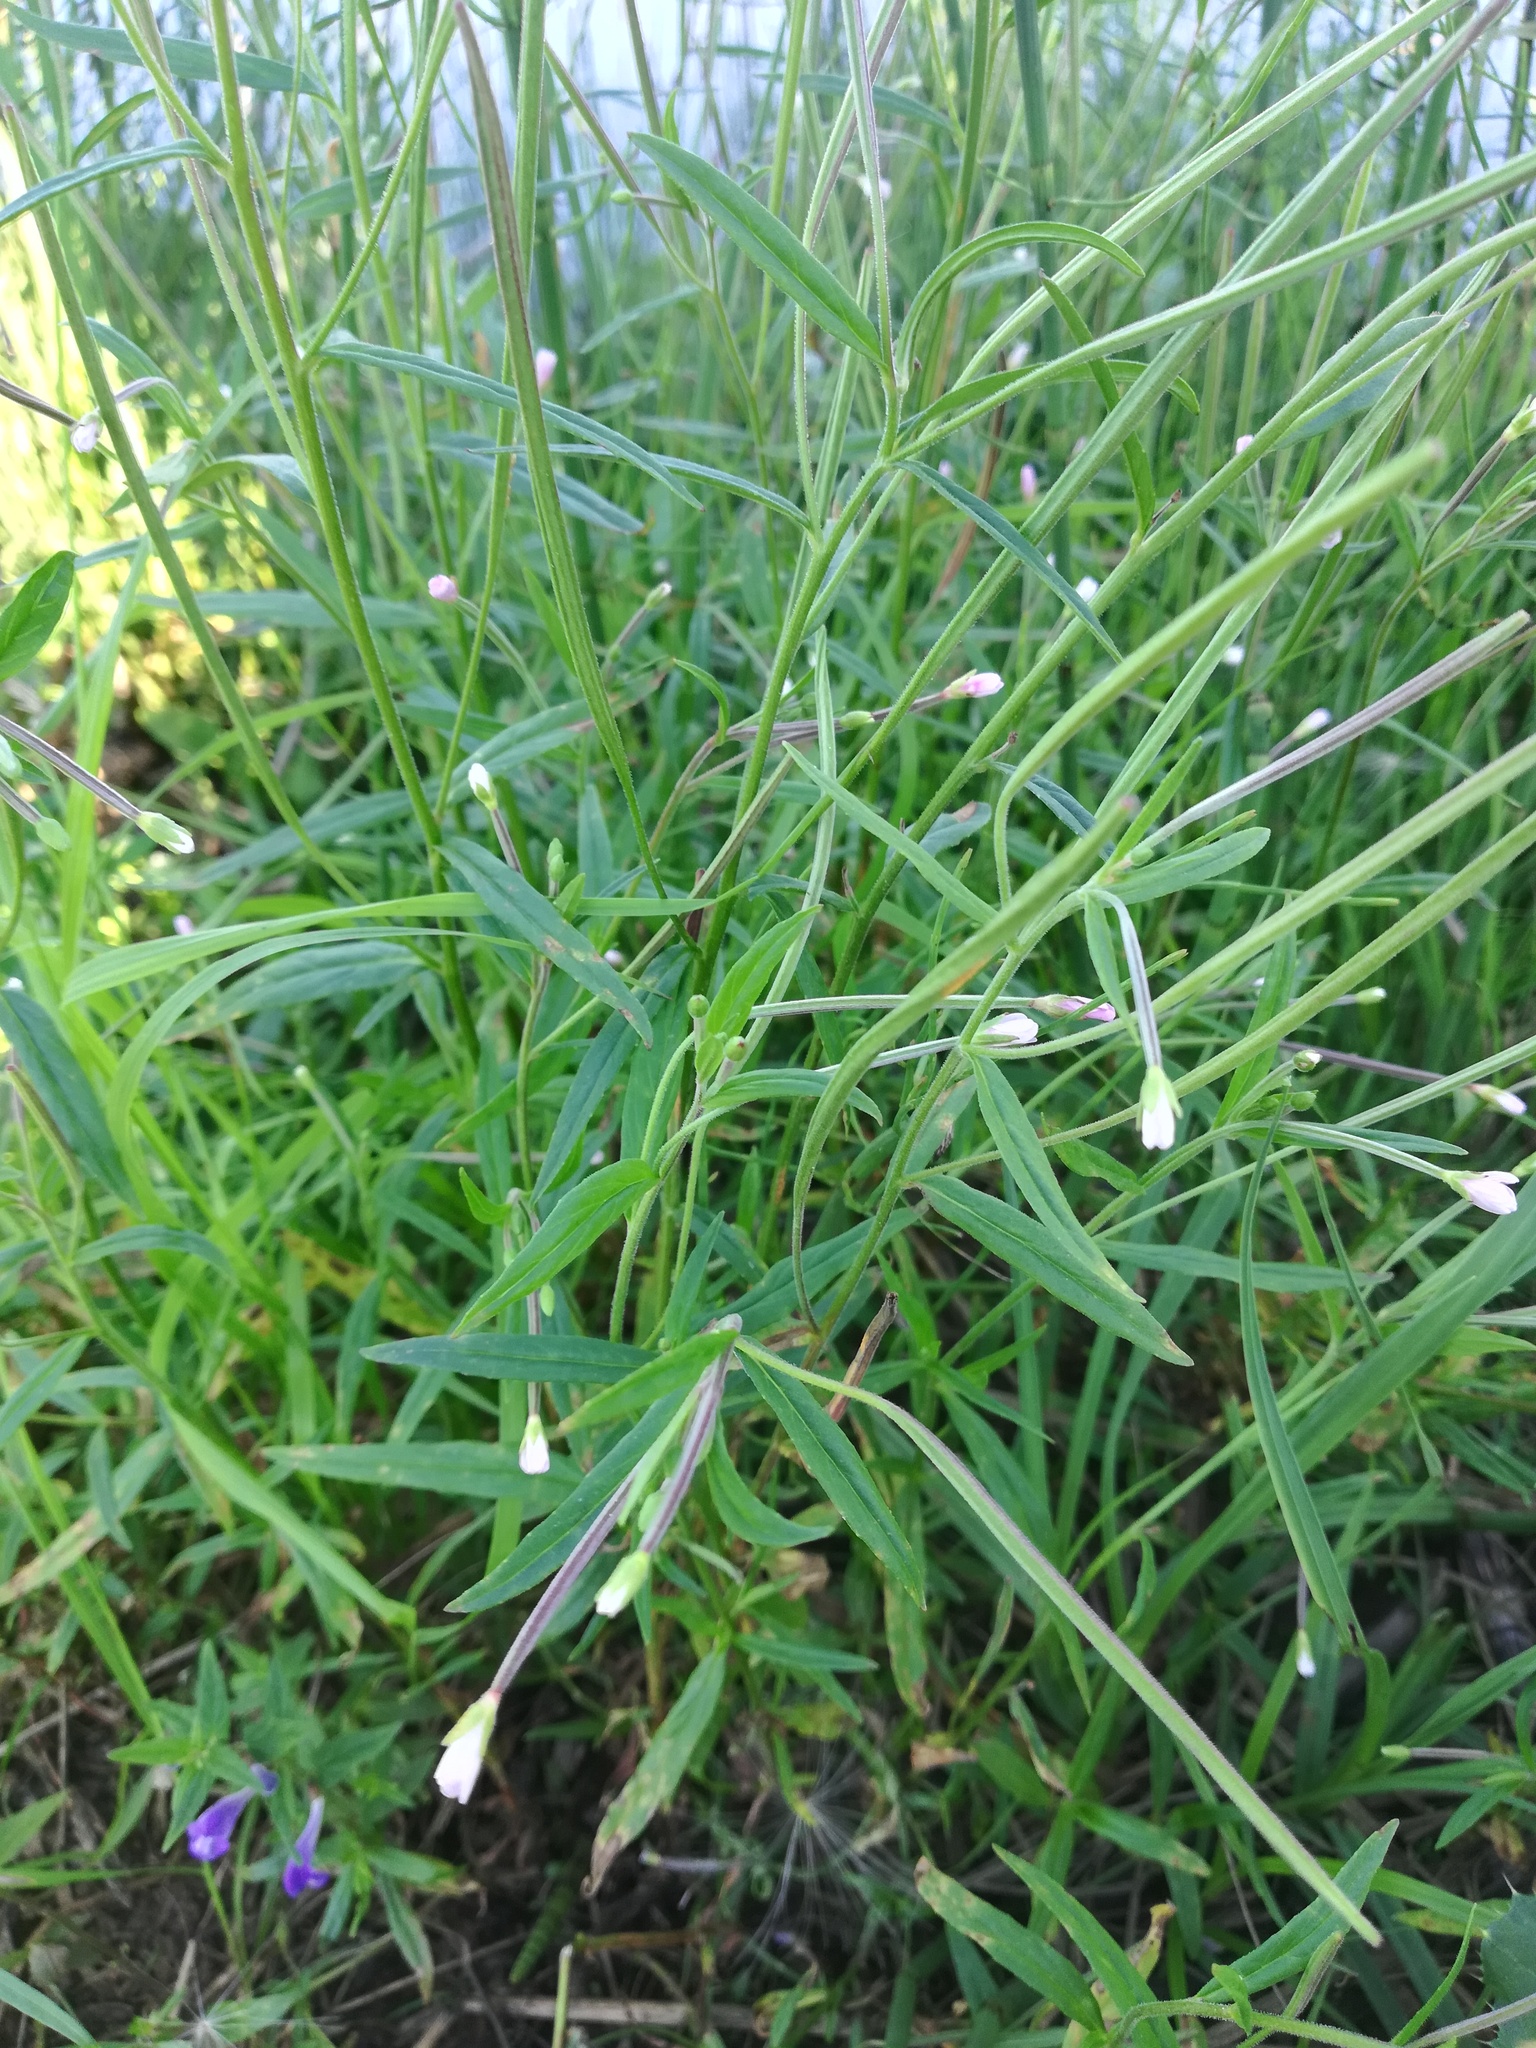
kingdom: Plantae
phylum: Tracheophyta
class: Magnoliopsida
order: Myrtales
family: Onagraceae
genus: Epilobium
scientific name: Epilobium palustre
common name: Marsh willowherb
